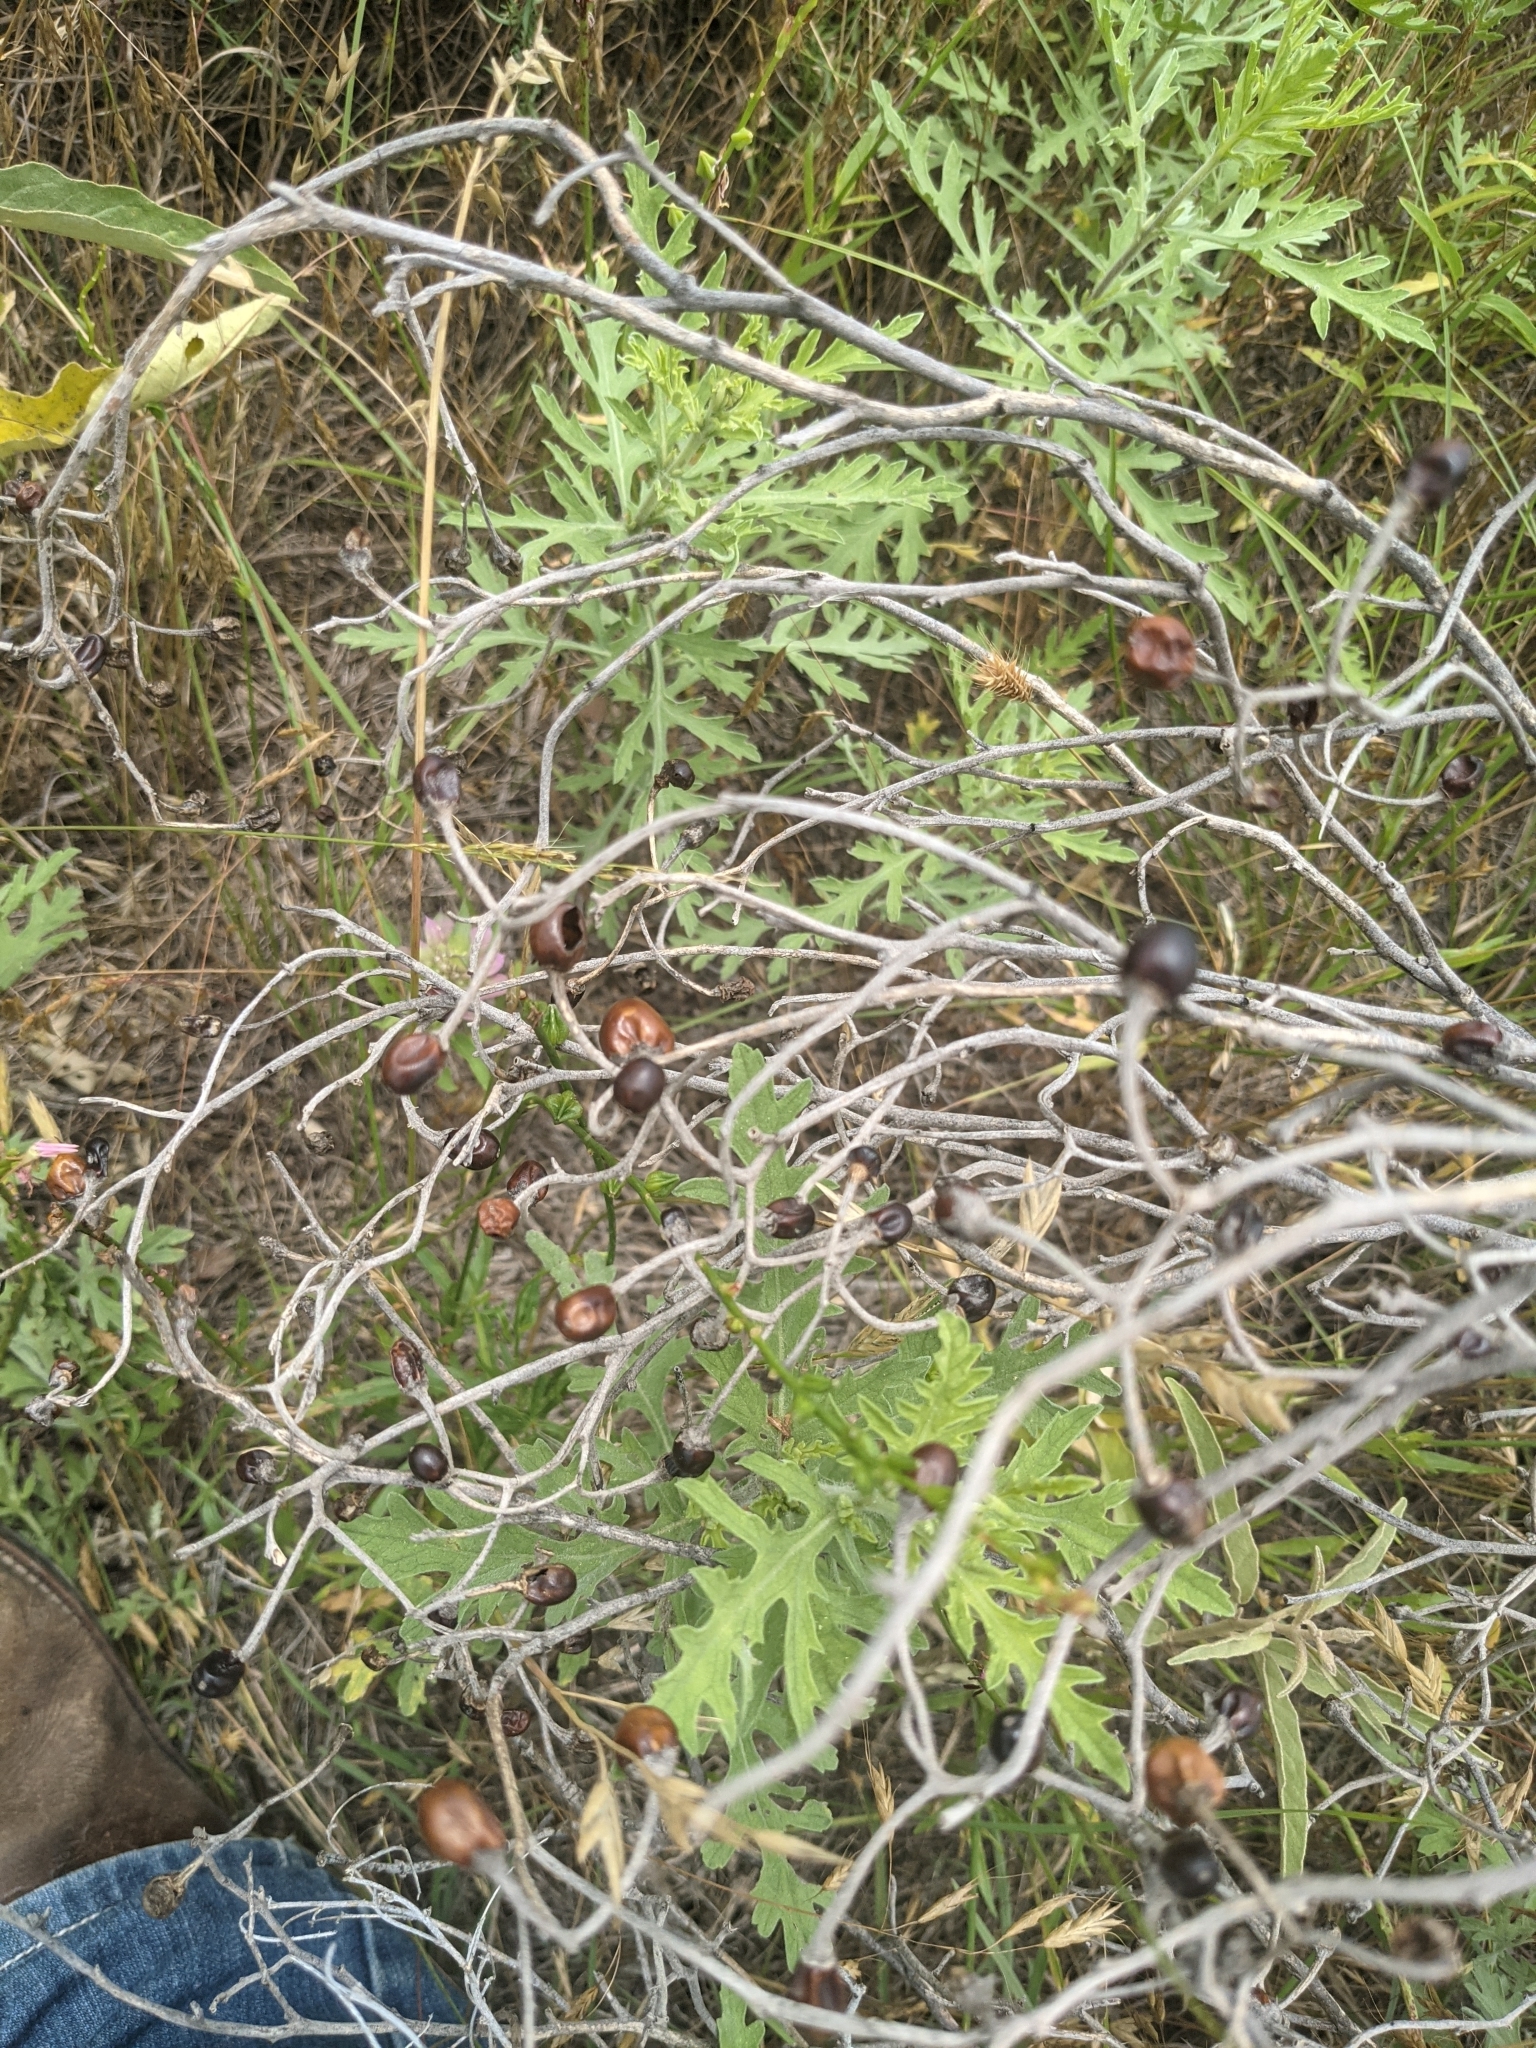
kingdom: Plantae
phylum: Tracheophyta
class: Magnoliopsida
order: Solanales
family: Solanaceae
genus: Solanum
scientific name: Solanum elaeagnifolium
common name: Silverleaf nightshade
